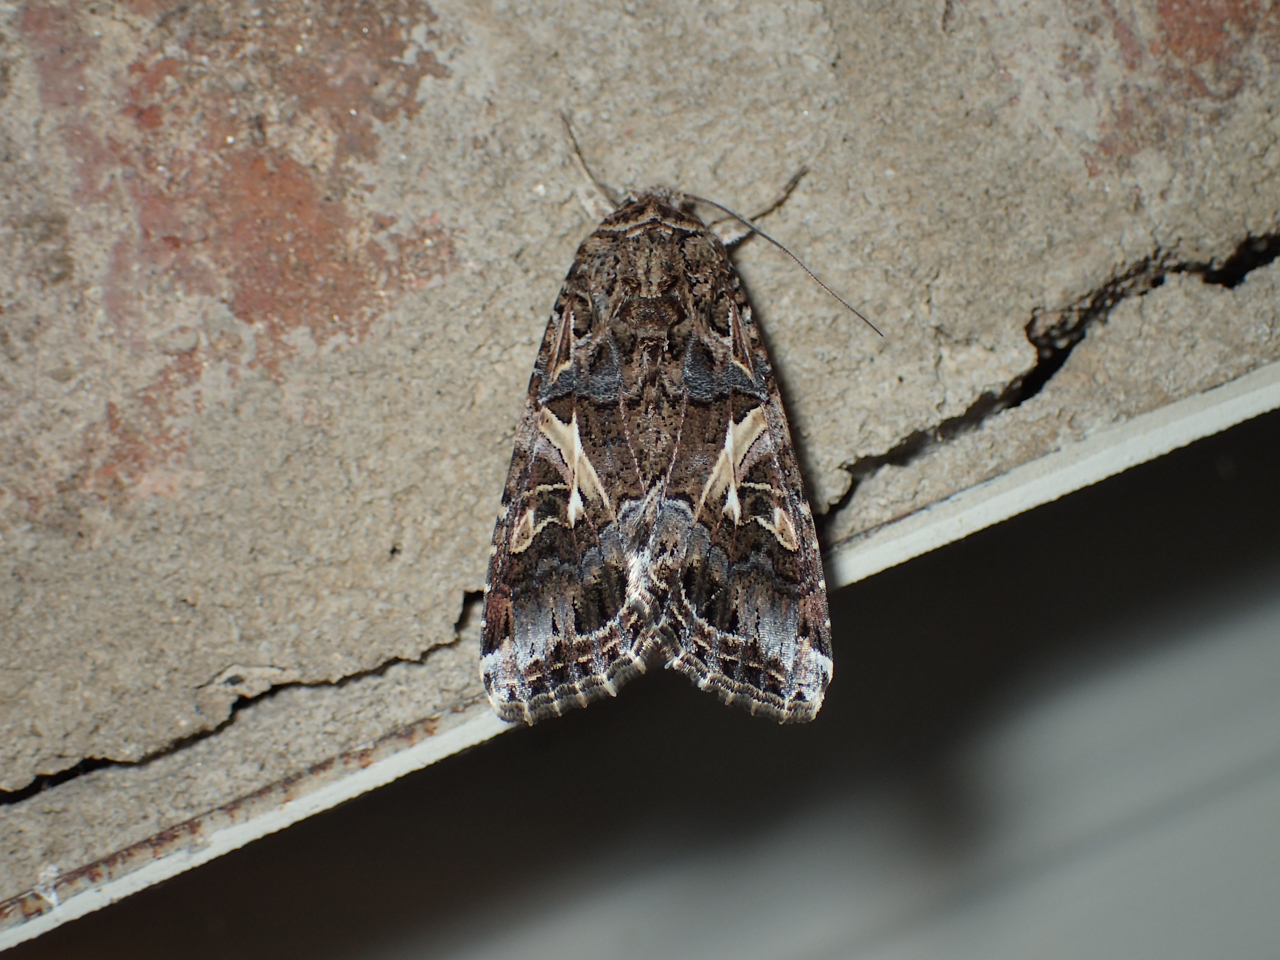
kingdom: Animalia
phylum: Arthropoda
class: Insecta
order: Lepidoptera
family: Noctuidae
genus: Spodoptera
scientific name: Spodoptera ornithogalli
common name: Yellow-striped armyworm
